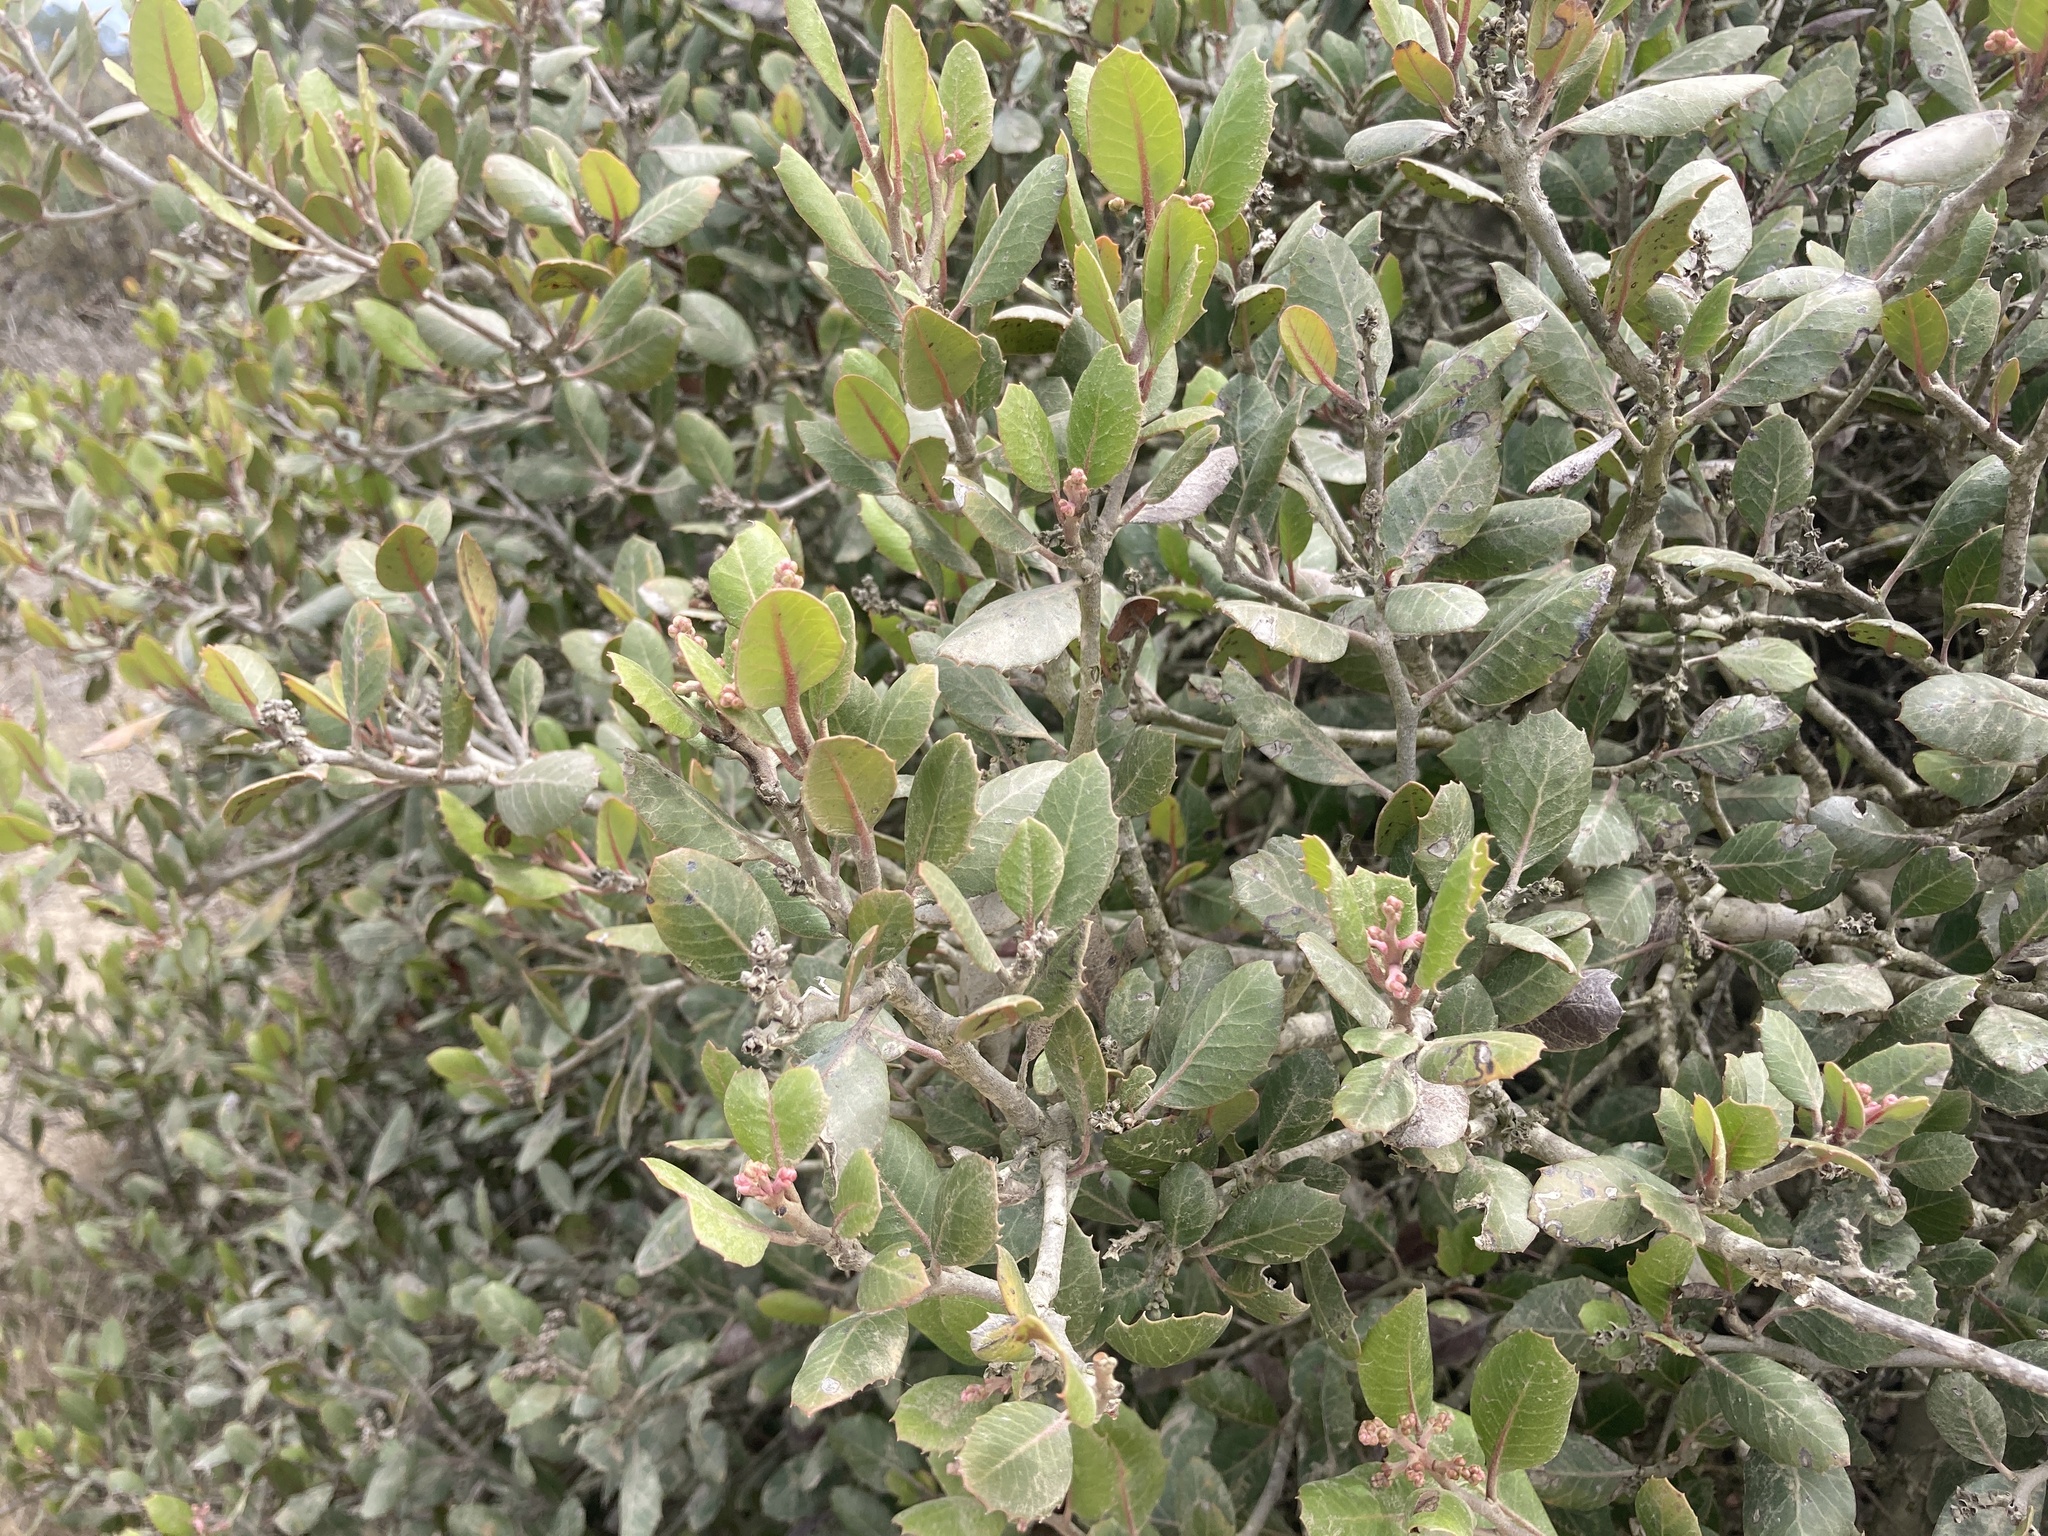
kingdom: Plantae
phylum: Tracheophyta
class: Magnoliopsida
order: Sapindales
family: Anacardiaceae
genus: Rhus
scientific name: Rhus integrifolia
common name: Lemonade sumac
